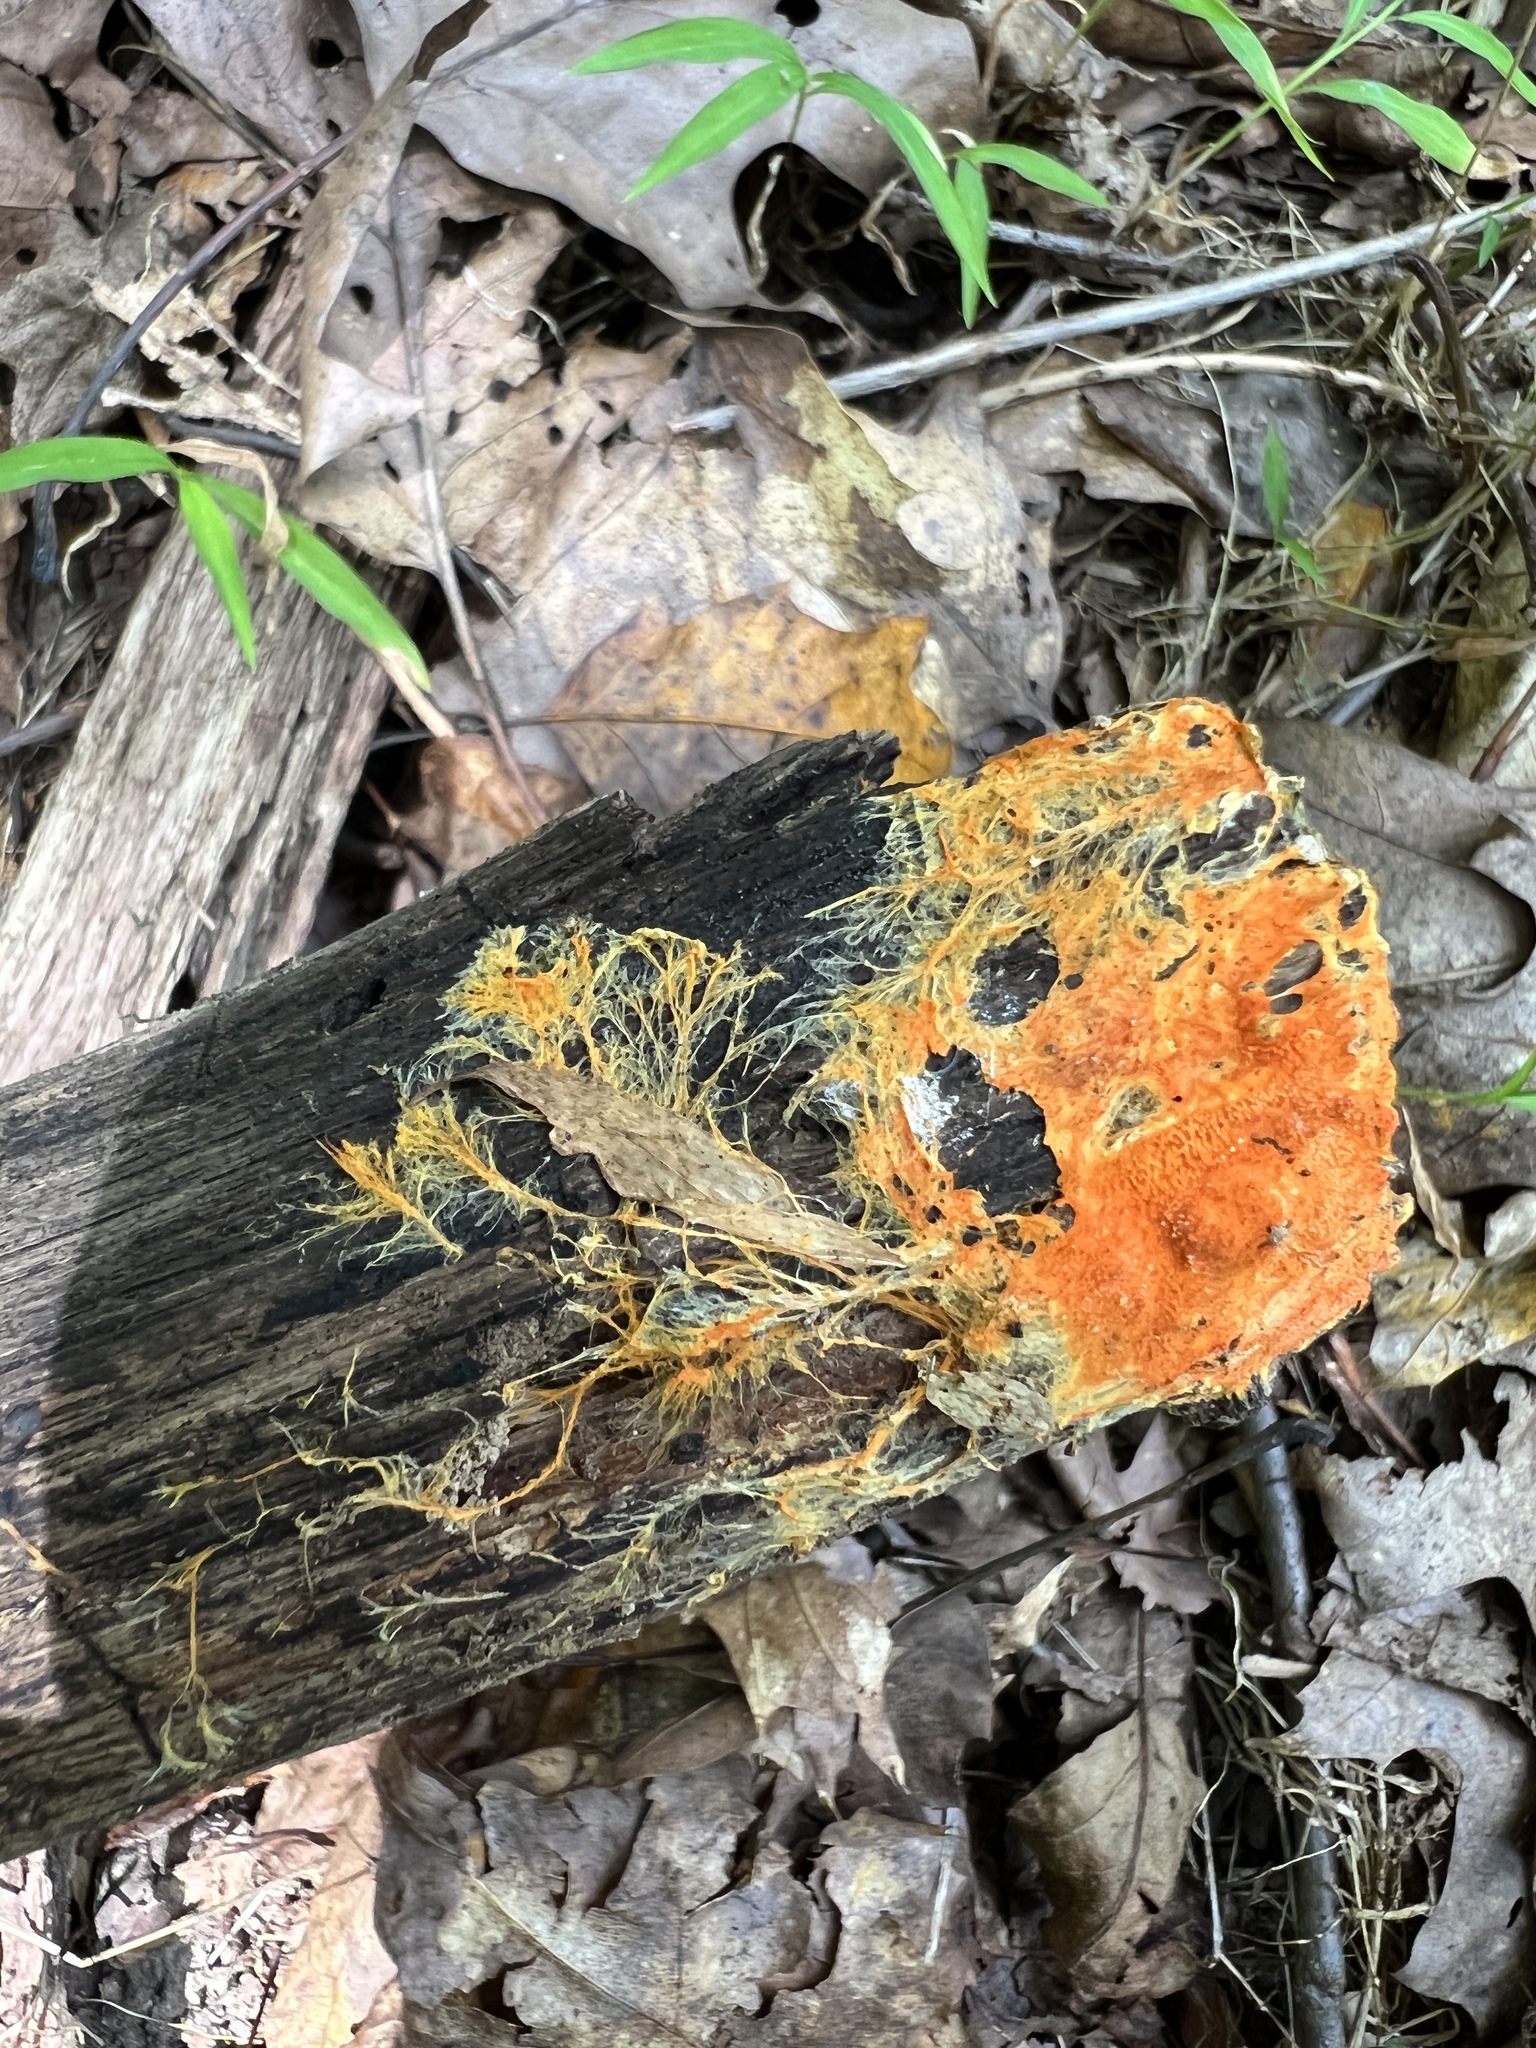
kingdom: Fungi
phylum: Basidiomycota
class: Agaricomycetes
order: Polyporales
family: Meruliaceae
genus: Hydnophlebia
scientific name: Hydnophlebia chrysorhiza
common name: Spreading yellow tooth
